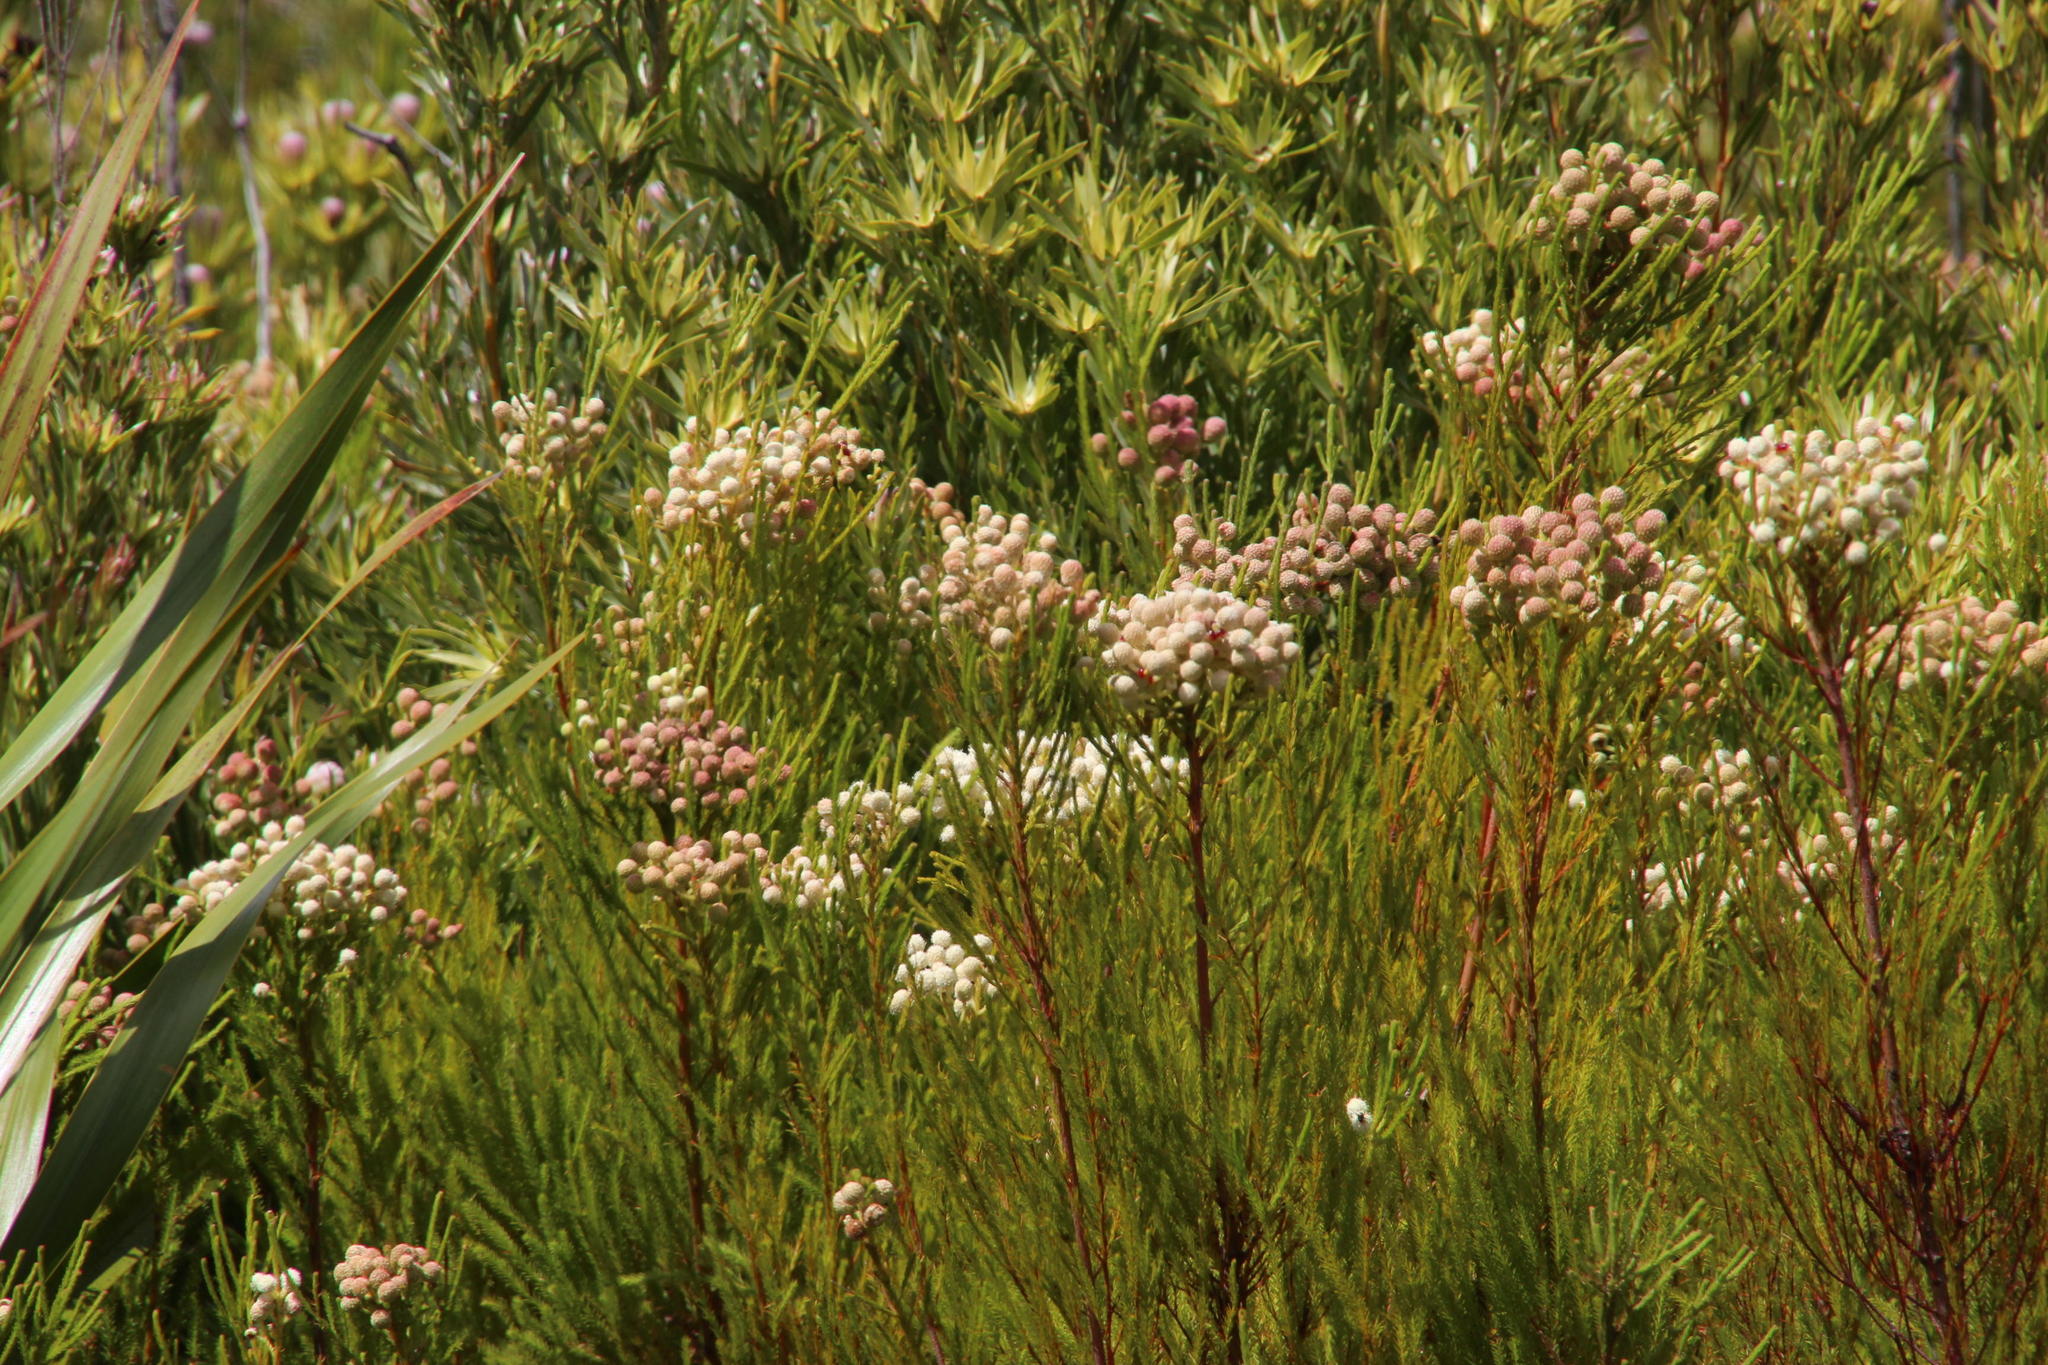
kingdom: Plantae
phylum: Tracheophyta
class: Magnoliopsida
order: Bruniales
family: Bruniaceae
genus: Berzelia
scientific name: Berzelia lanuginosa
